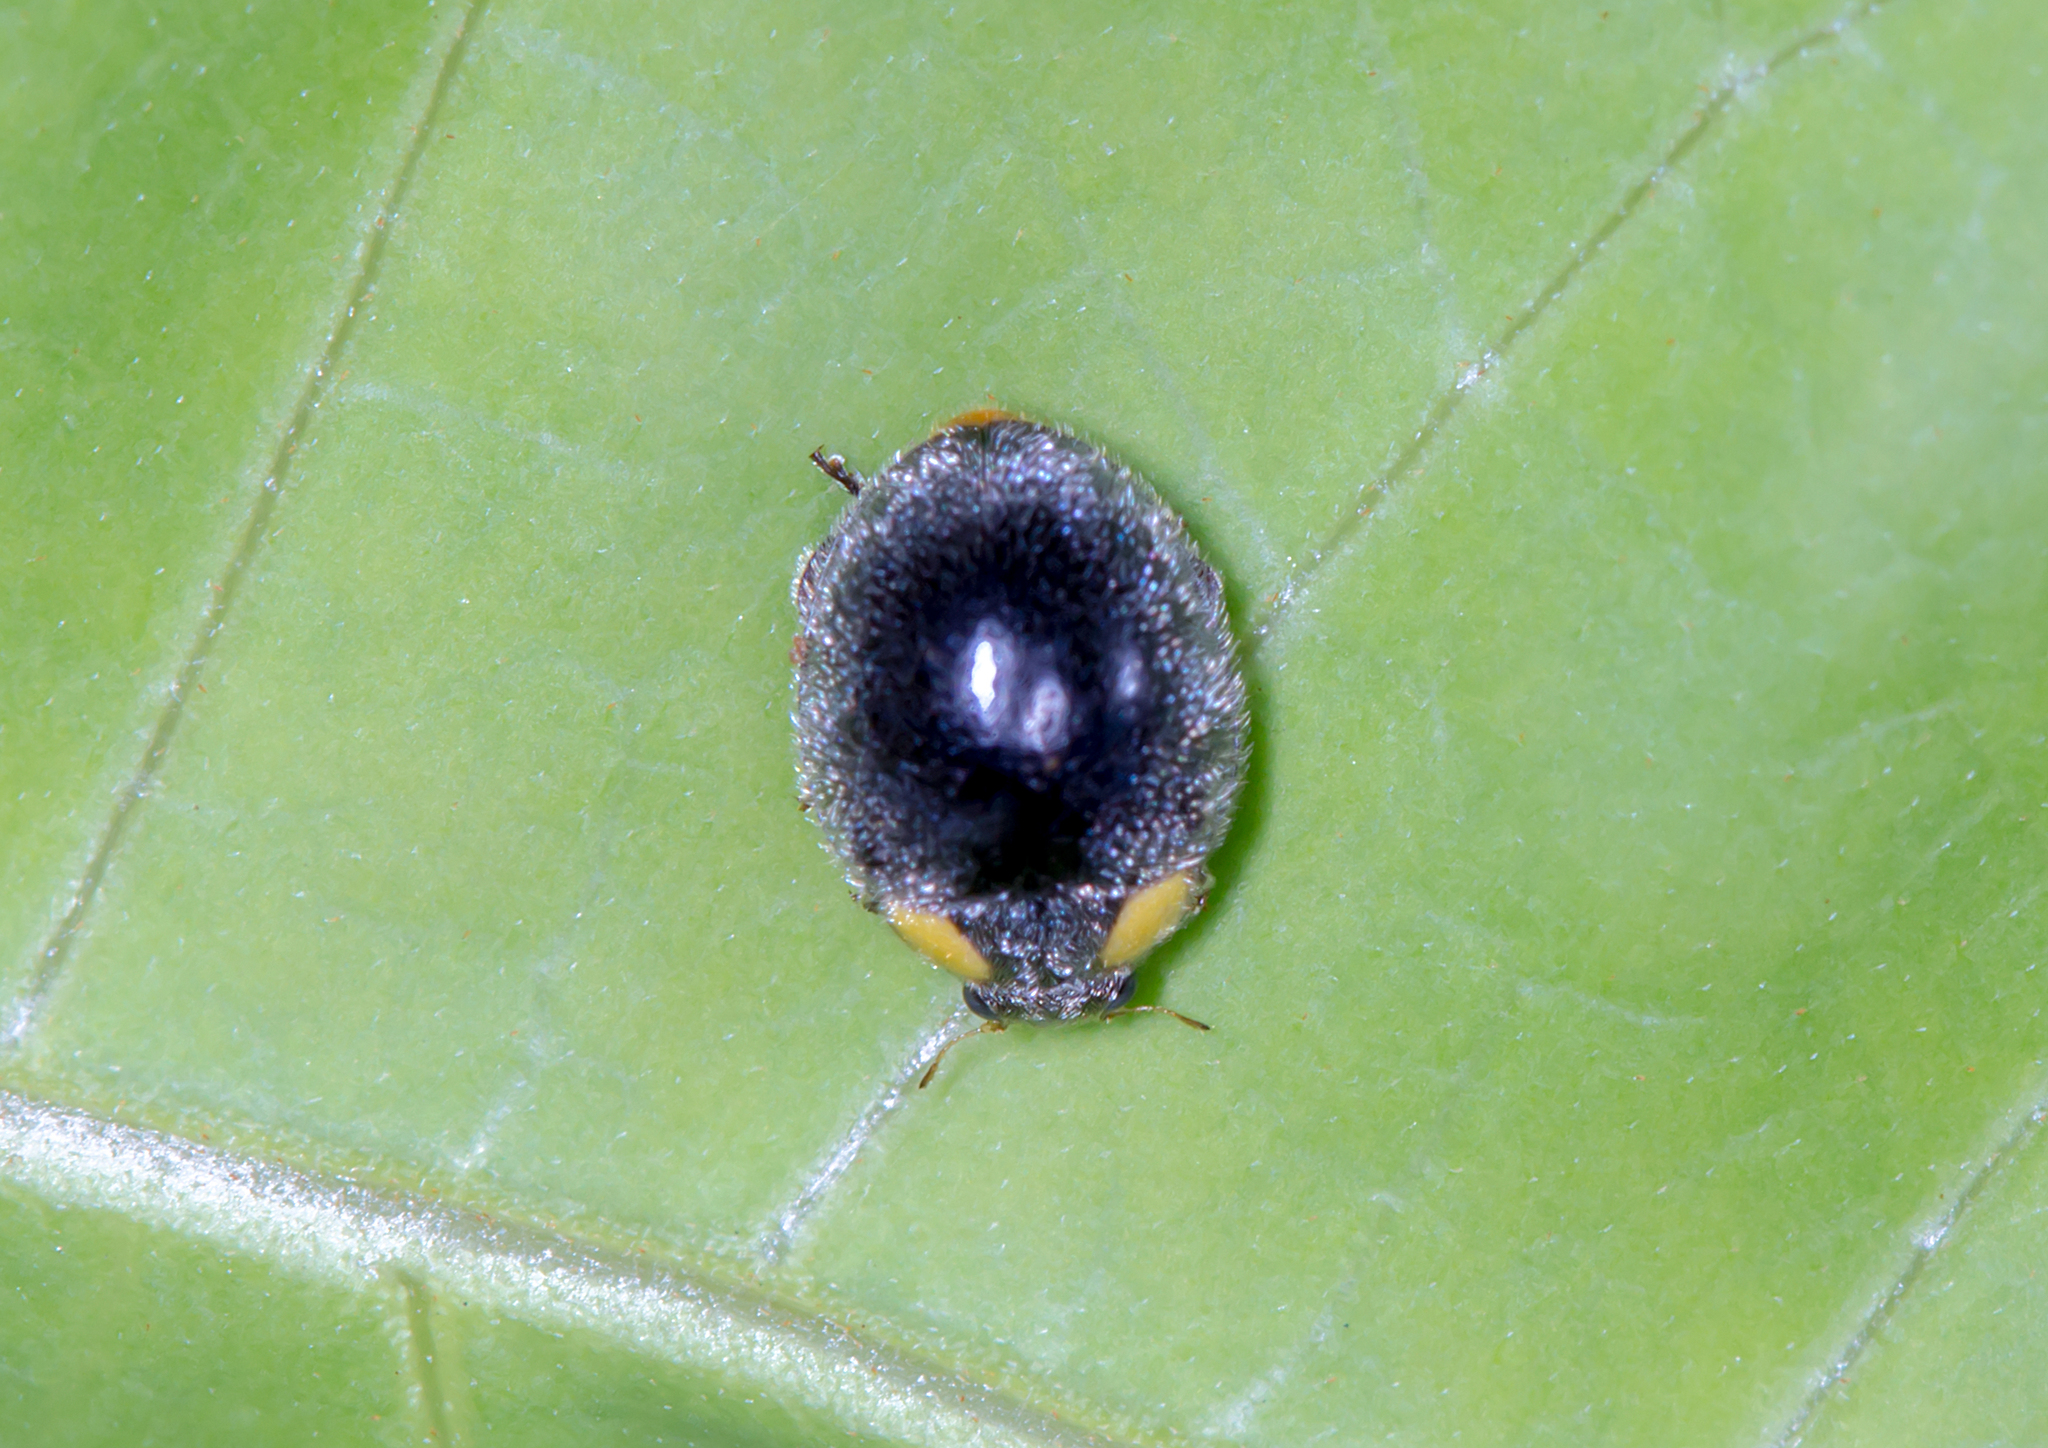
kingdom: Animalia
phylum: Arthropoda
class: Insecta
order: Coleoptera
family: Coccinellidae
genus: Scymnodes
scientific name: Scymnodes lividigaster
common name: Yellowshouldered lady beetle
